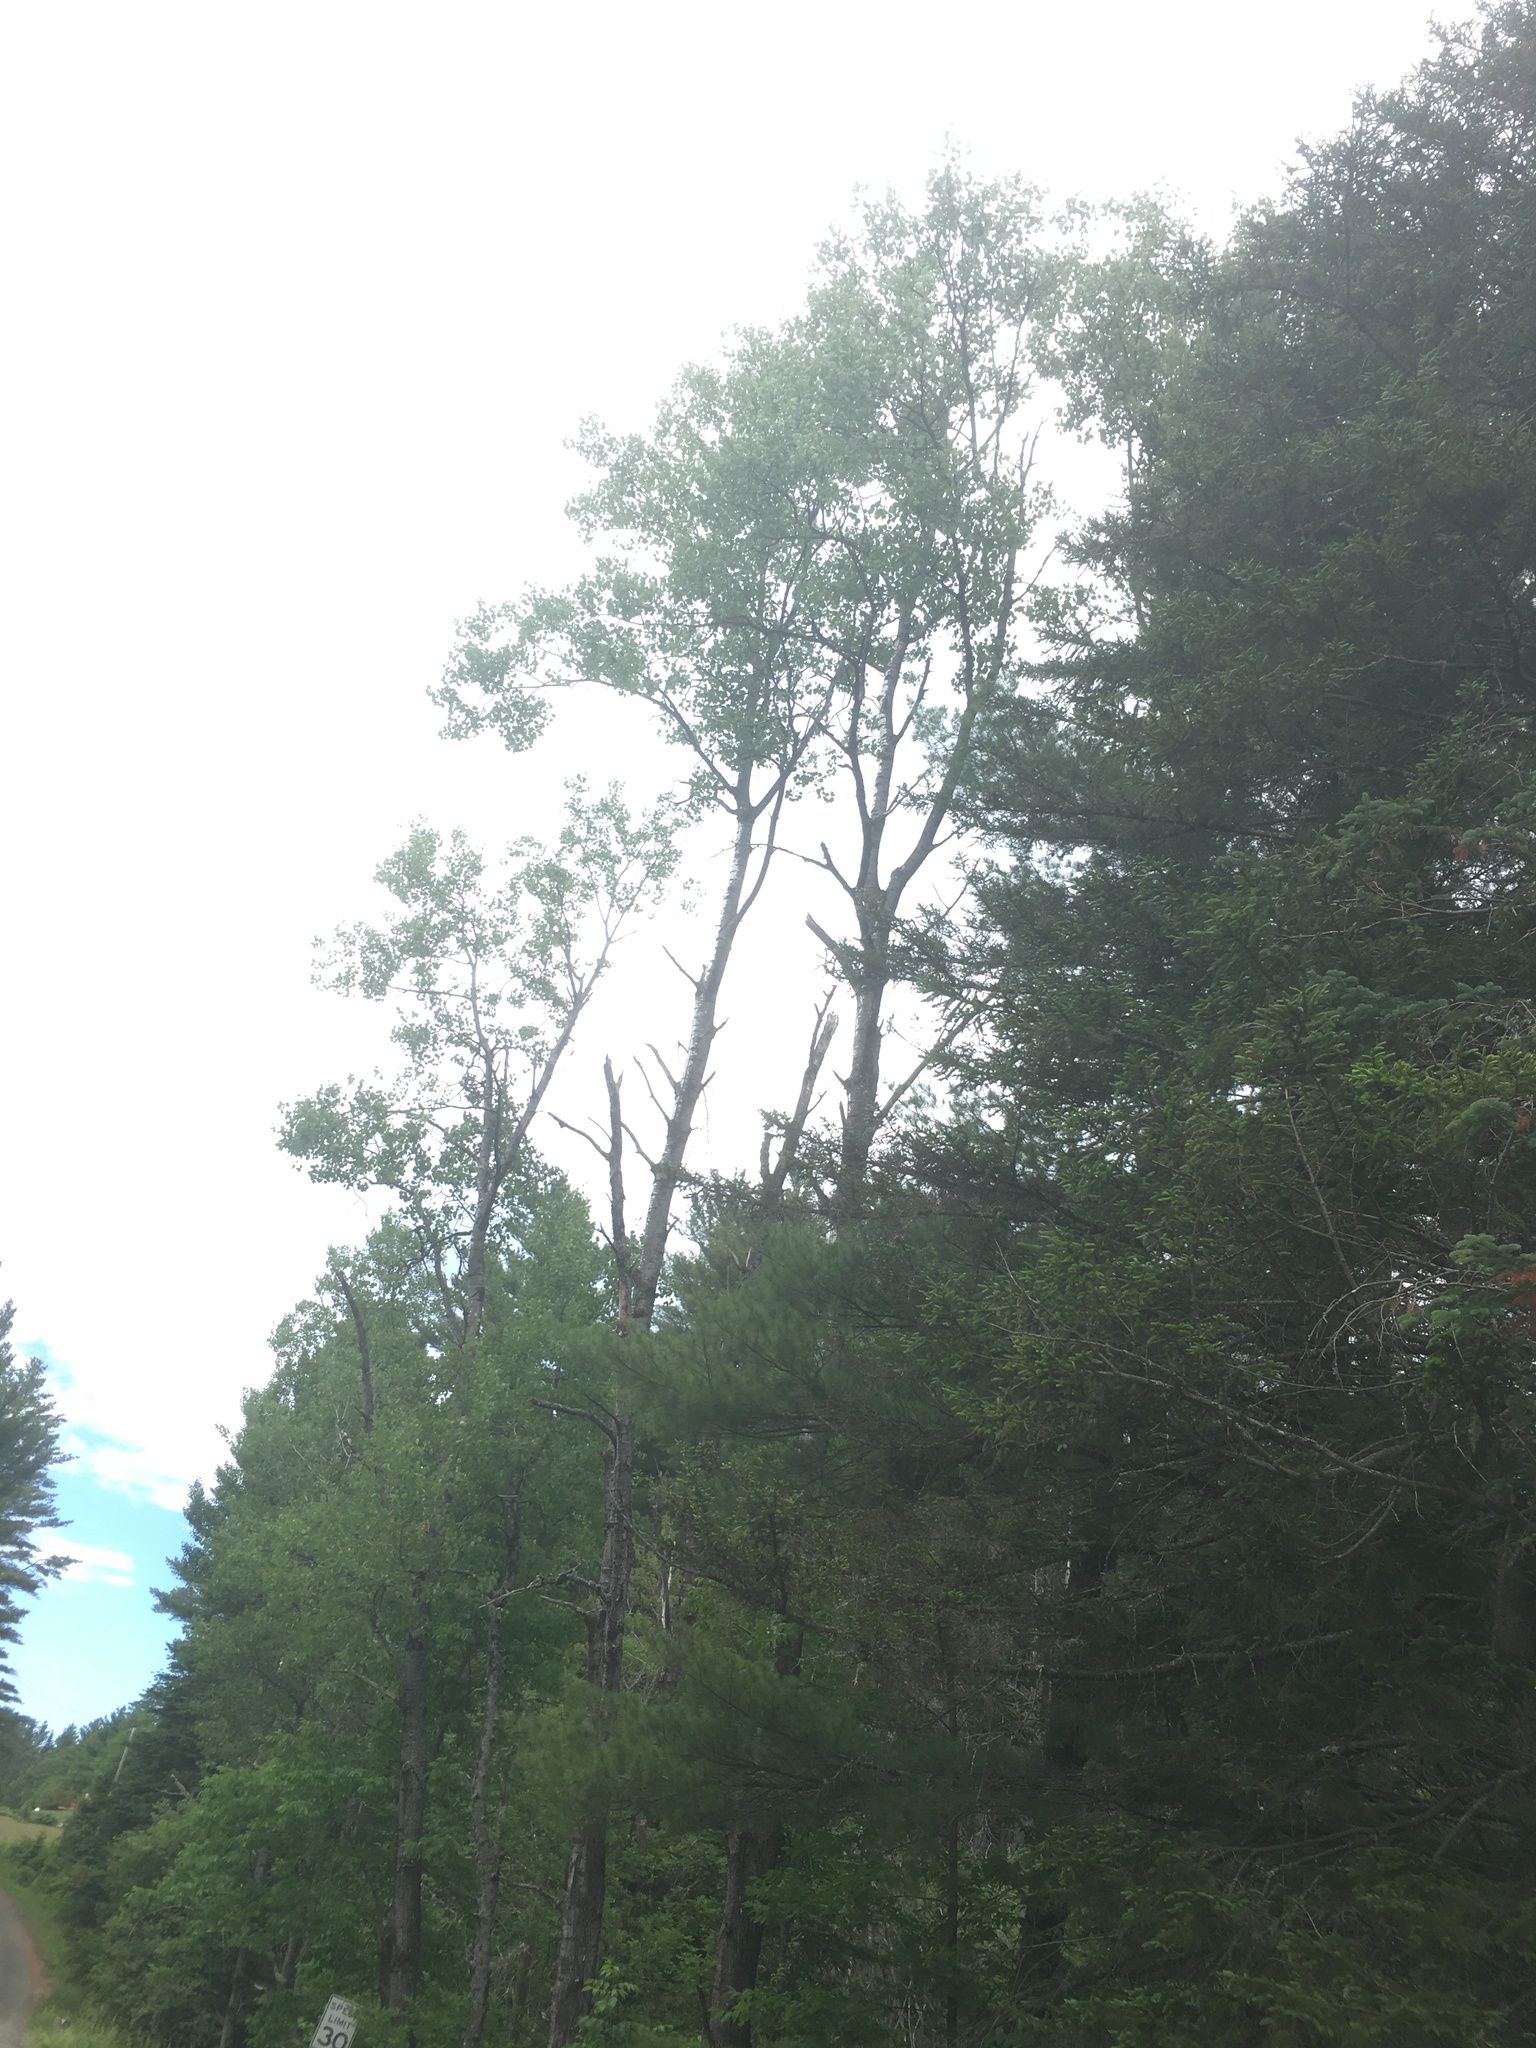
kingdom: Plantae
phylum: Tracheophyta
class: Magnoliopsida
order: Malpighiales
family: Salicaceae
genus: Populus
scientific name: Populus tremuloides
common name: Quaking aspen
